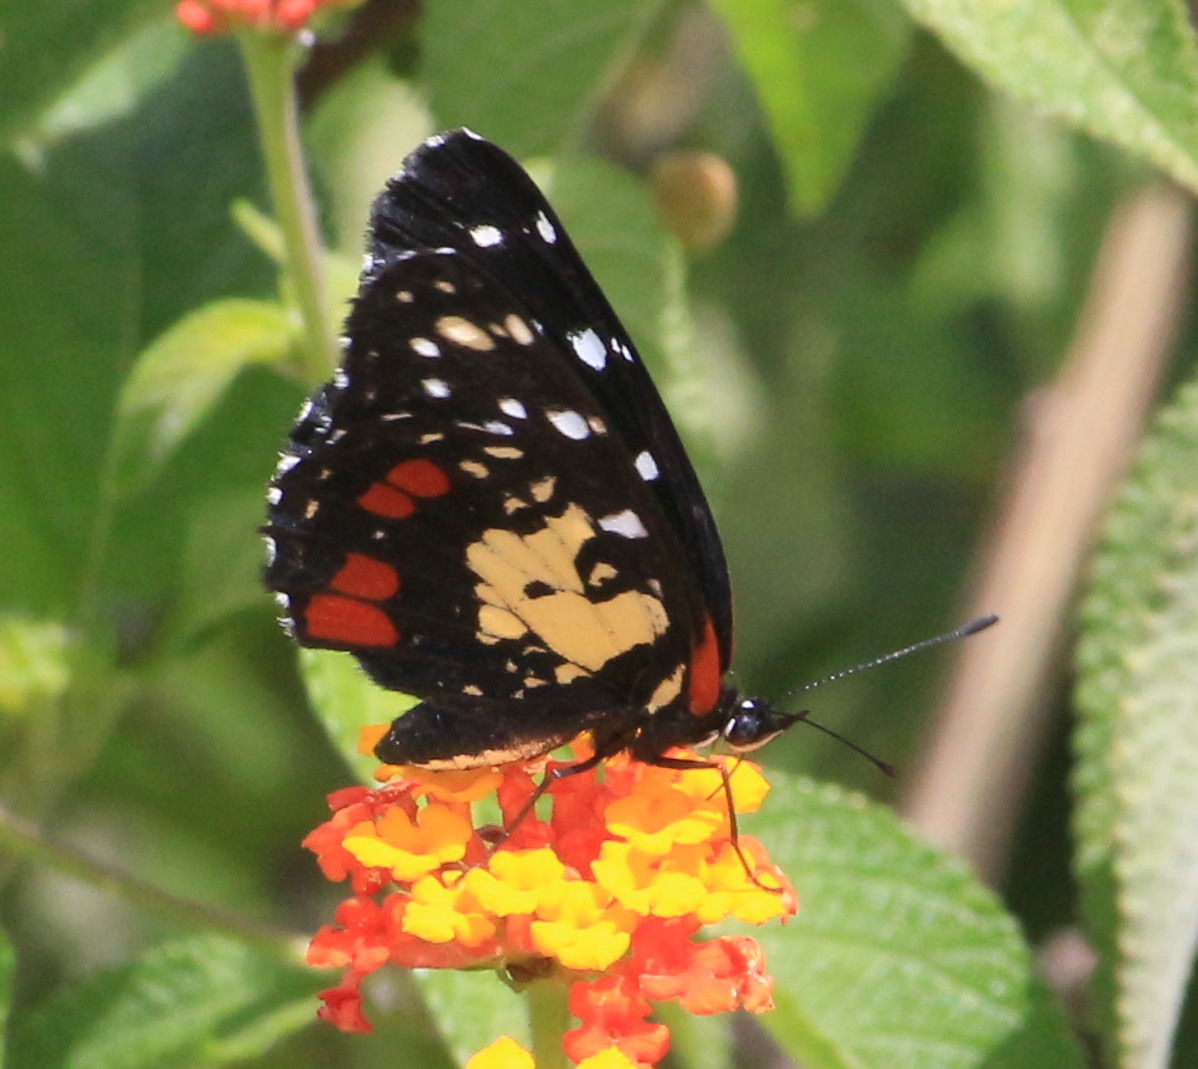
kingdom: Animalia
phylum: Arthropoda
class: Insecta
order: Lepidoptera
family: Nymphalidae
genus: Chlosyne
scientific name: Chlosyne erodyle
